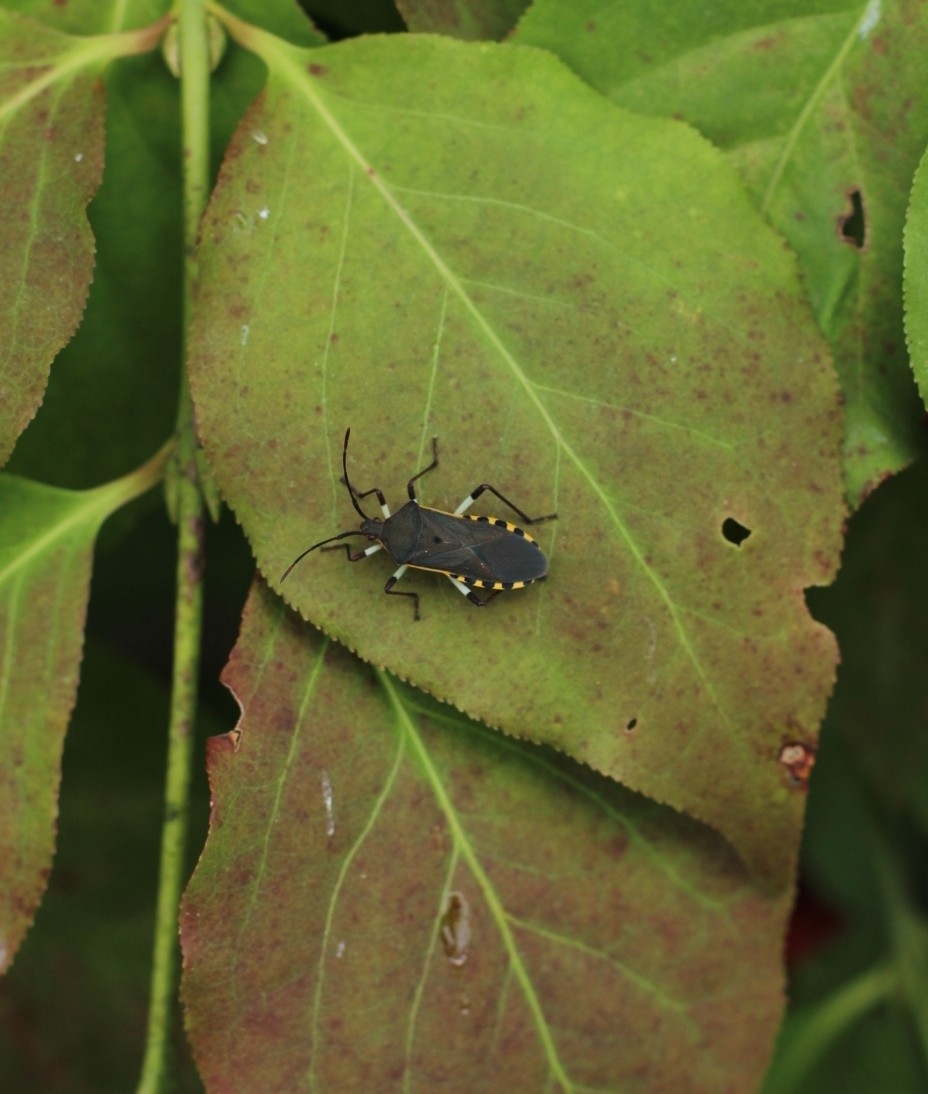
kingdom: Animalia
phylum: Arthropoda
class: Insecta
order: Hemiptera
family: Coreidae
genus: Plinachtus
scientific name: Plinachtus bicoloripes
